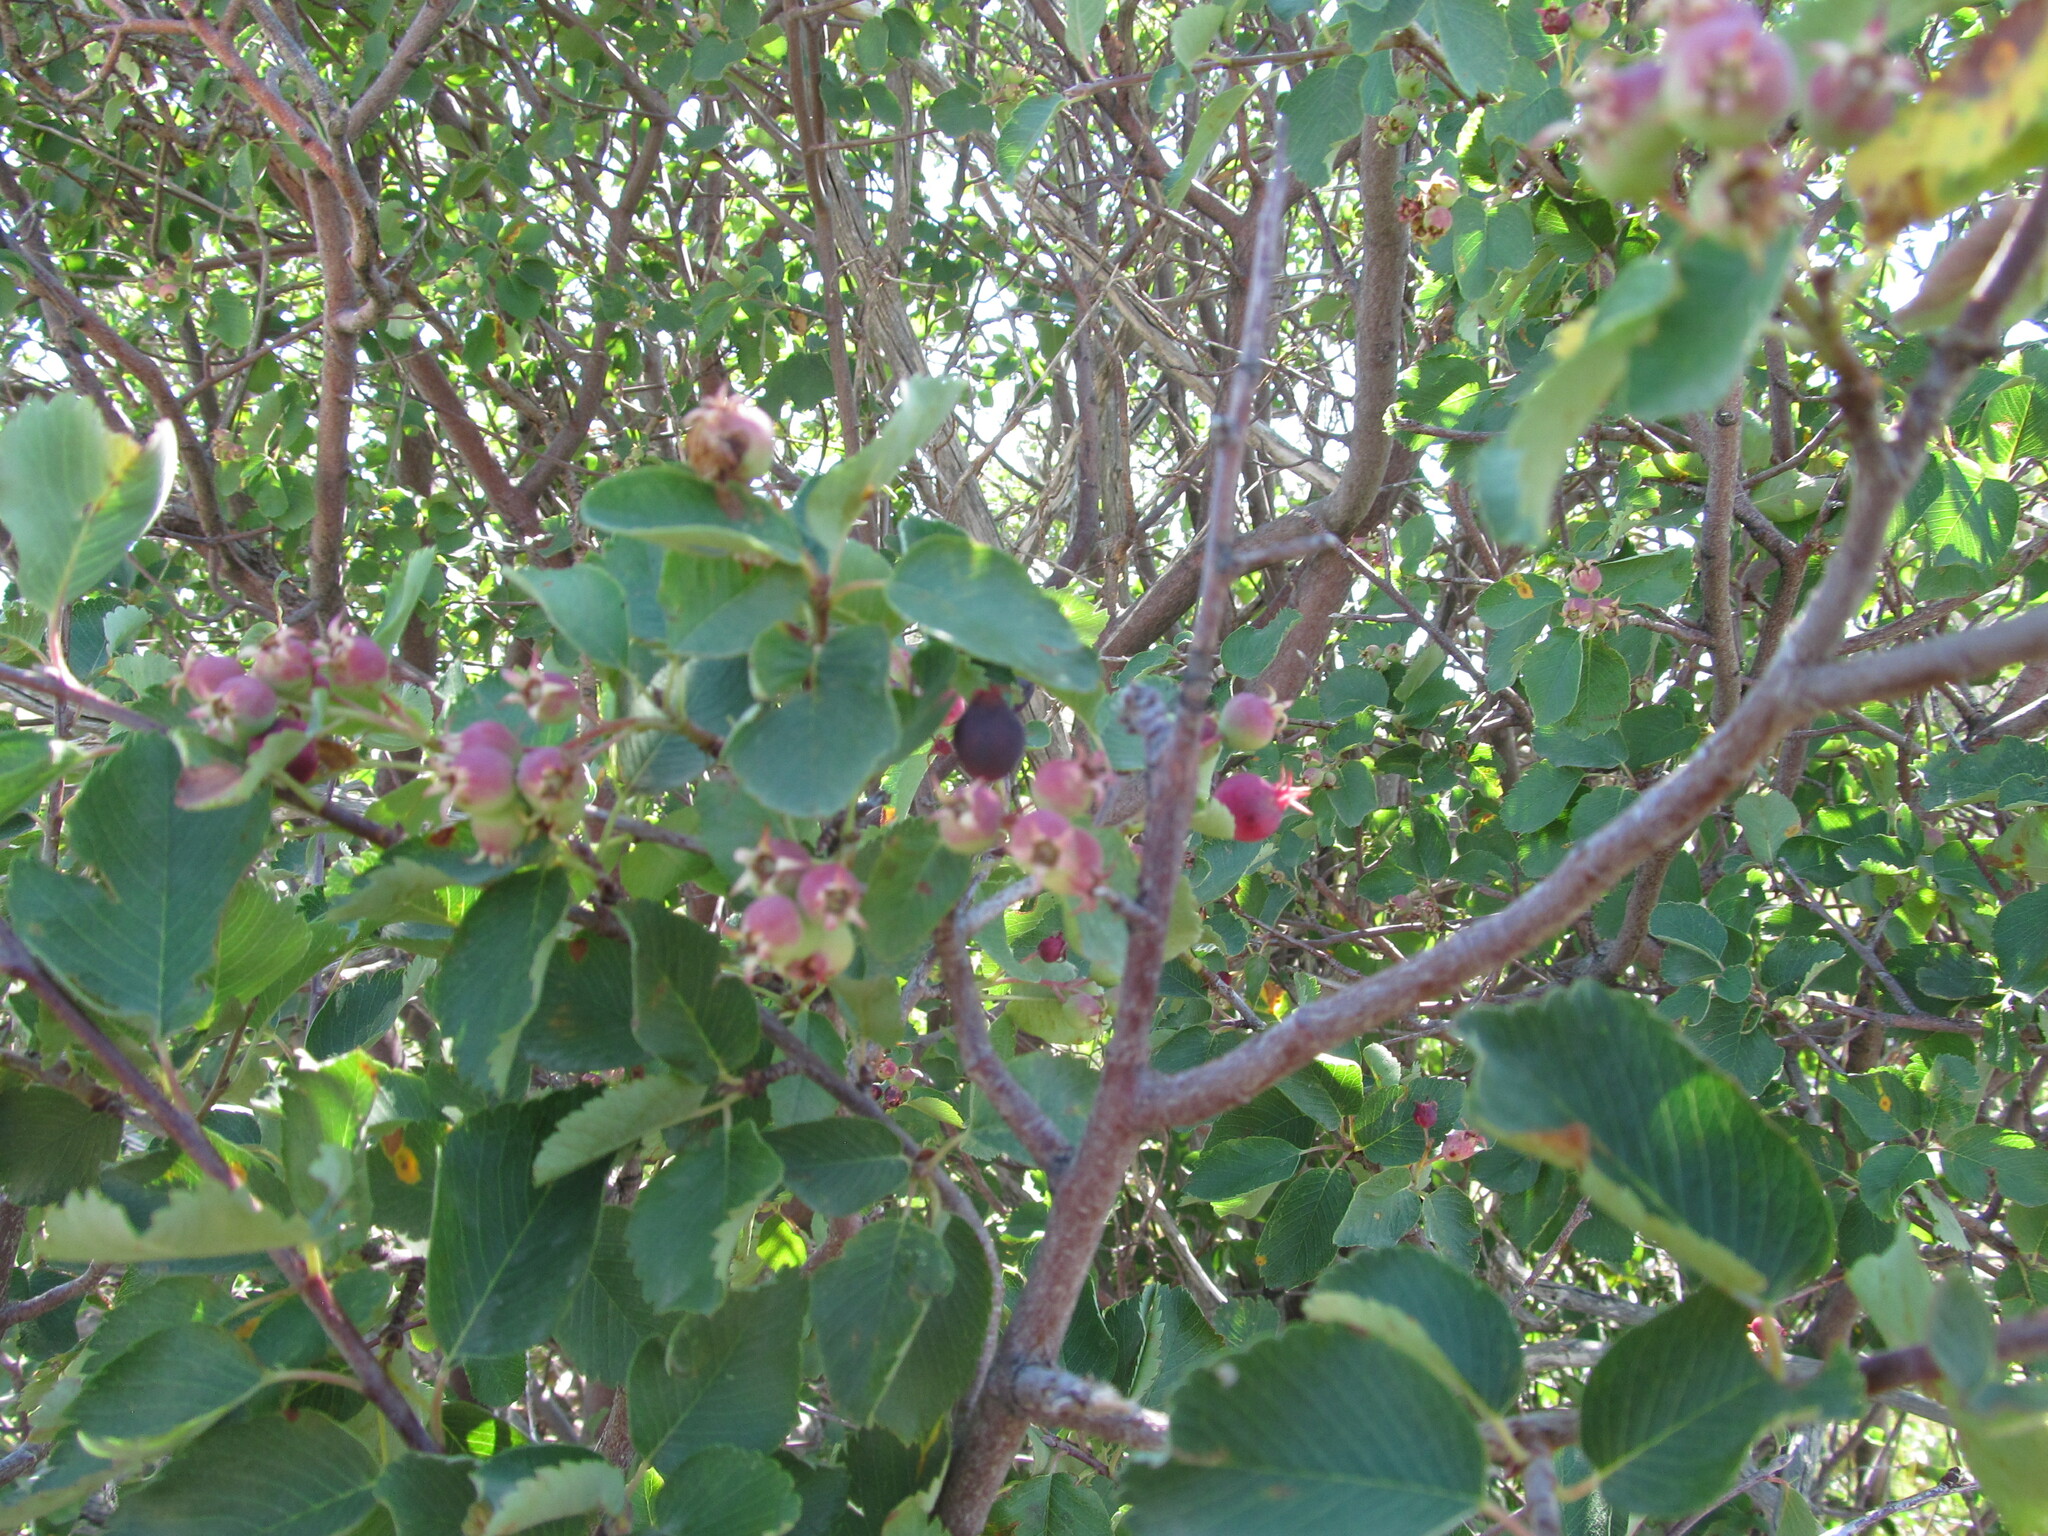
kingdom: Plantae
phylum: Tracheophyta
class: Magnoliopsida
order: Rosales
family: Rosaceae
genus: Amelanchier
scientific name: Amelanchier utahensis
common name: Utah serviceberry
